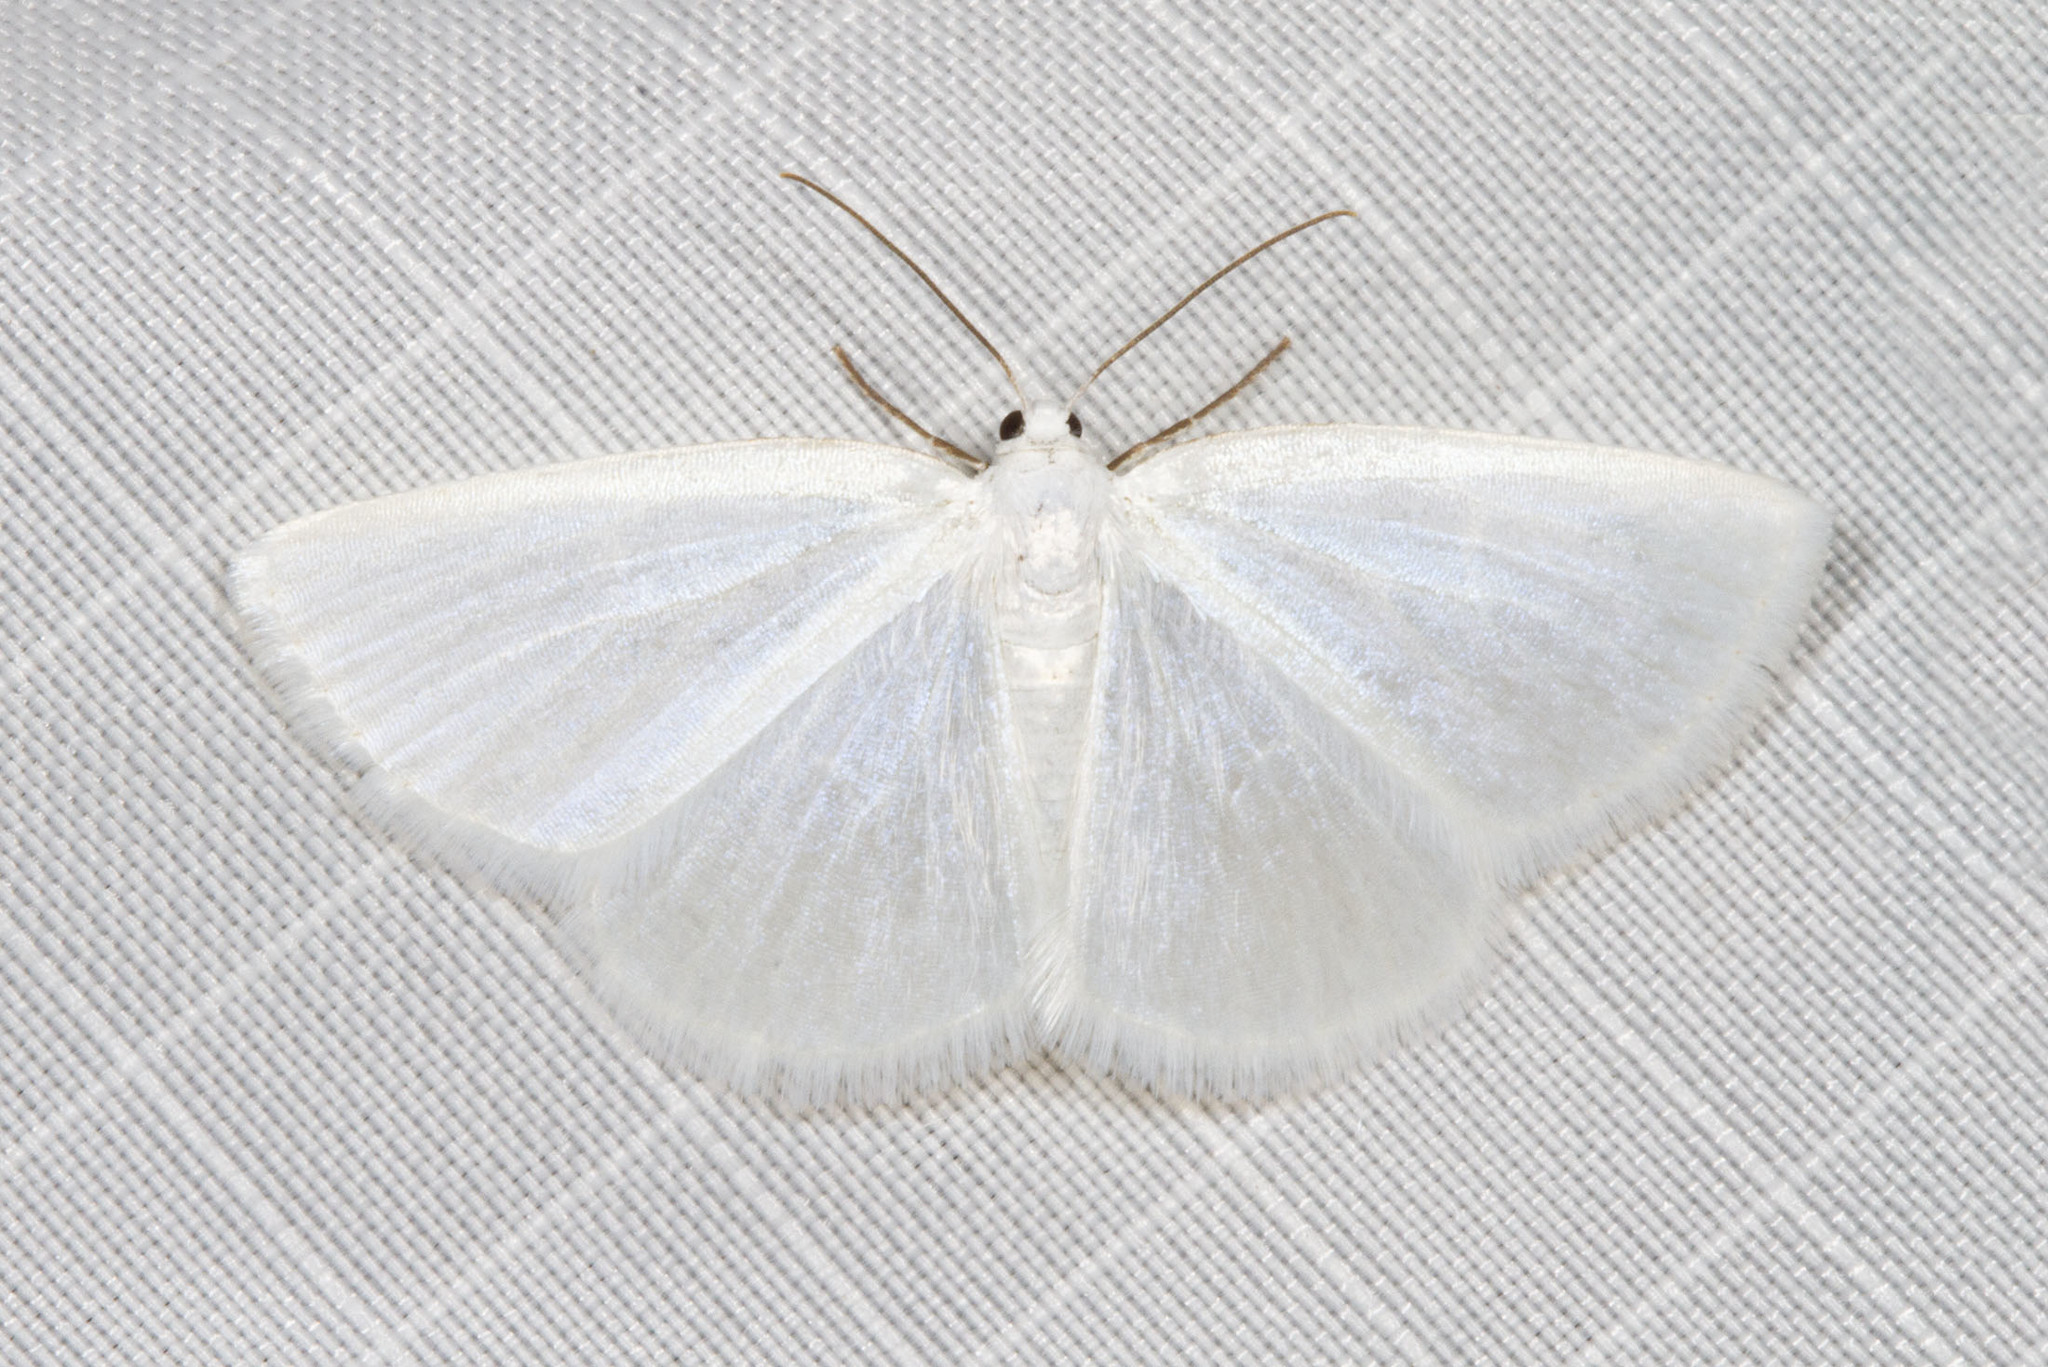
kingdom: Animalia
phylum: Arthropoda
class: Insecta
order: Lepidoptera
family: Geometridae
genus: Lomographa
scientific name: Lomographa vestaliata
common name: White spring moth
